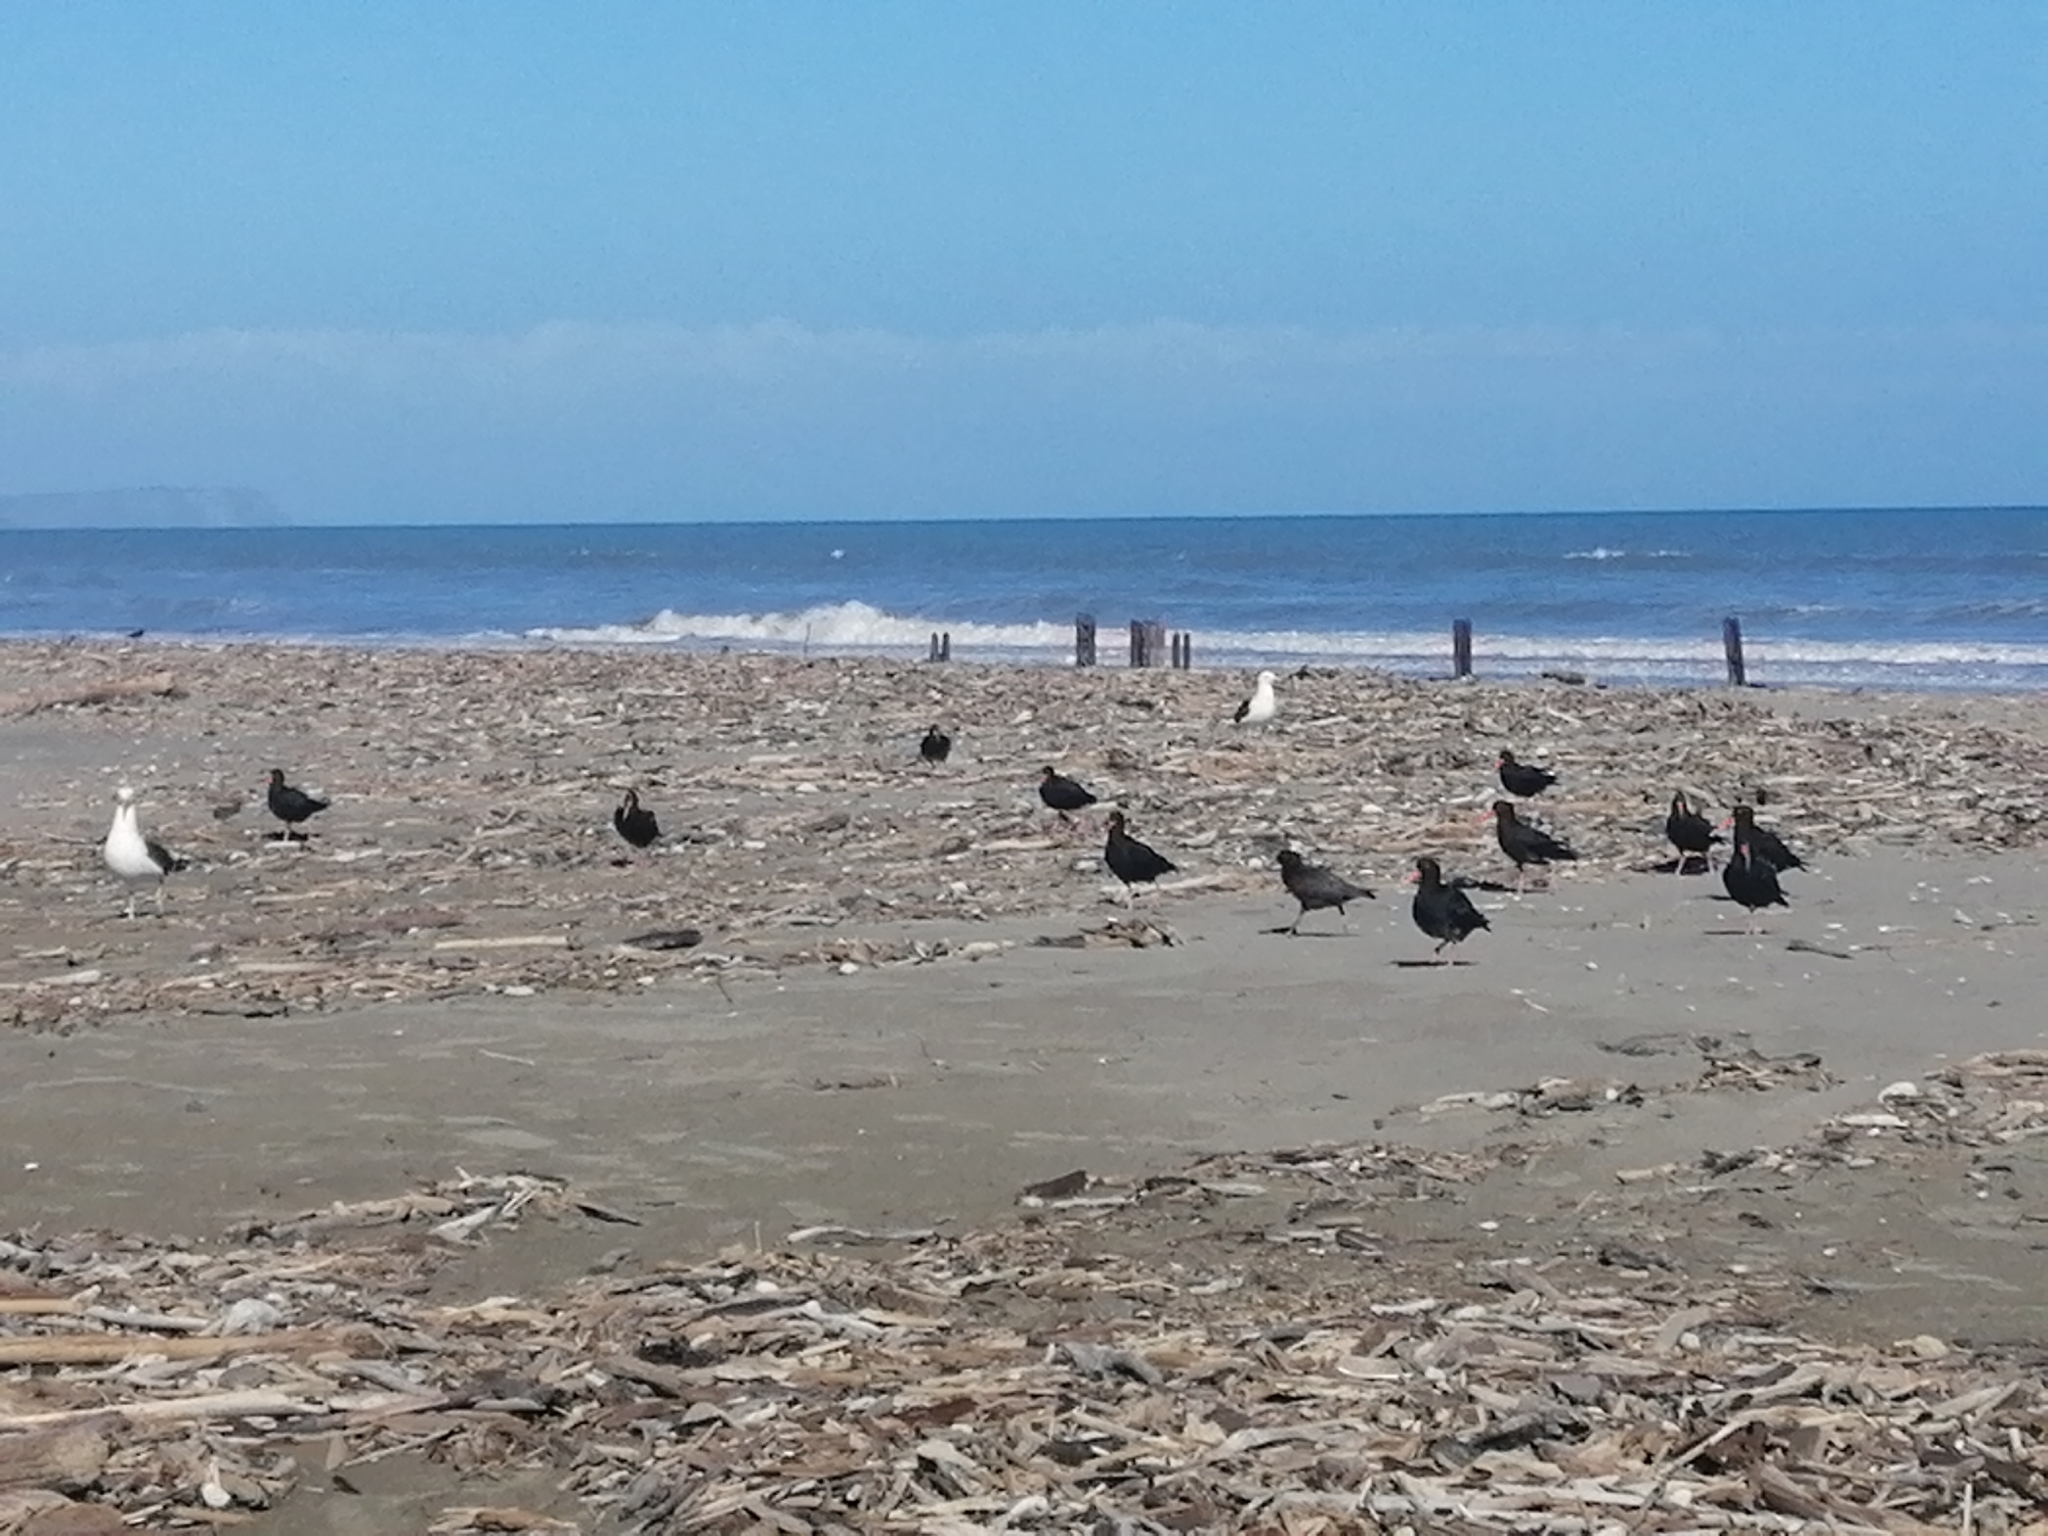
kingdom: Animalia
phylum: Chordata
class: Aves
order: Charadriiformes
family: Haematopodidae
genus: Haematopus
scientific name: Haematopus unicolor
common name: Variable oystercatcher
